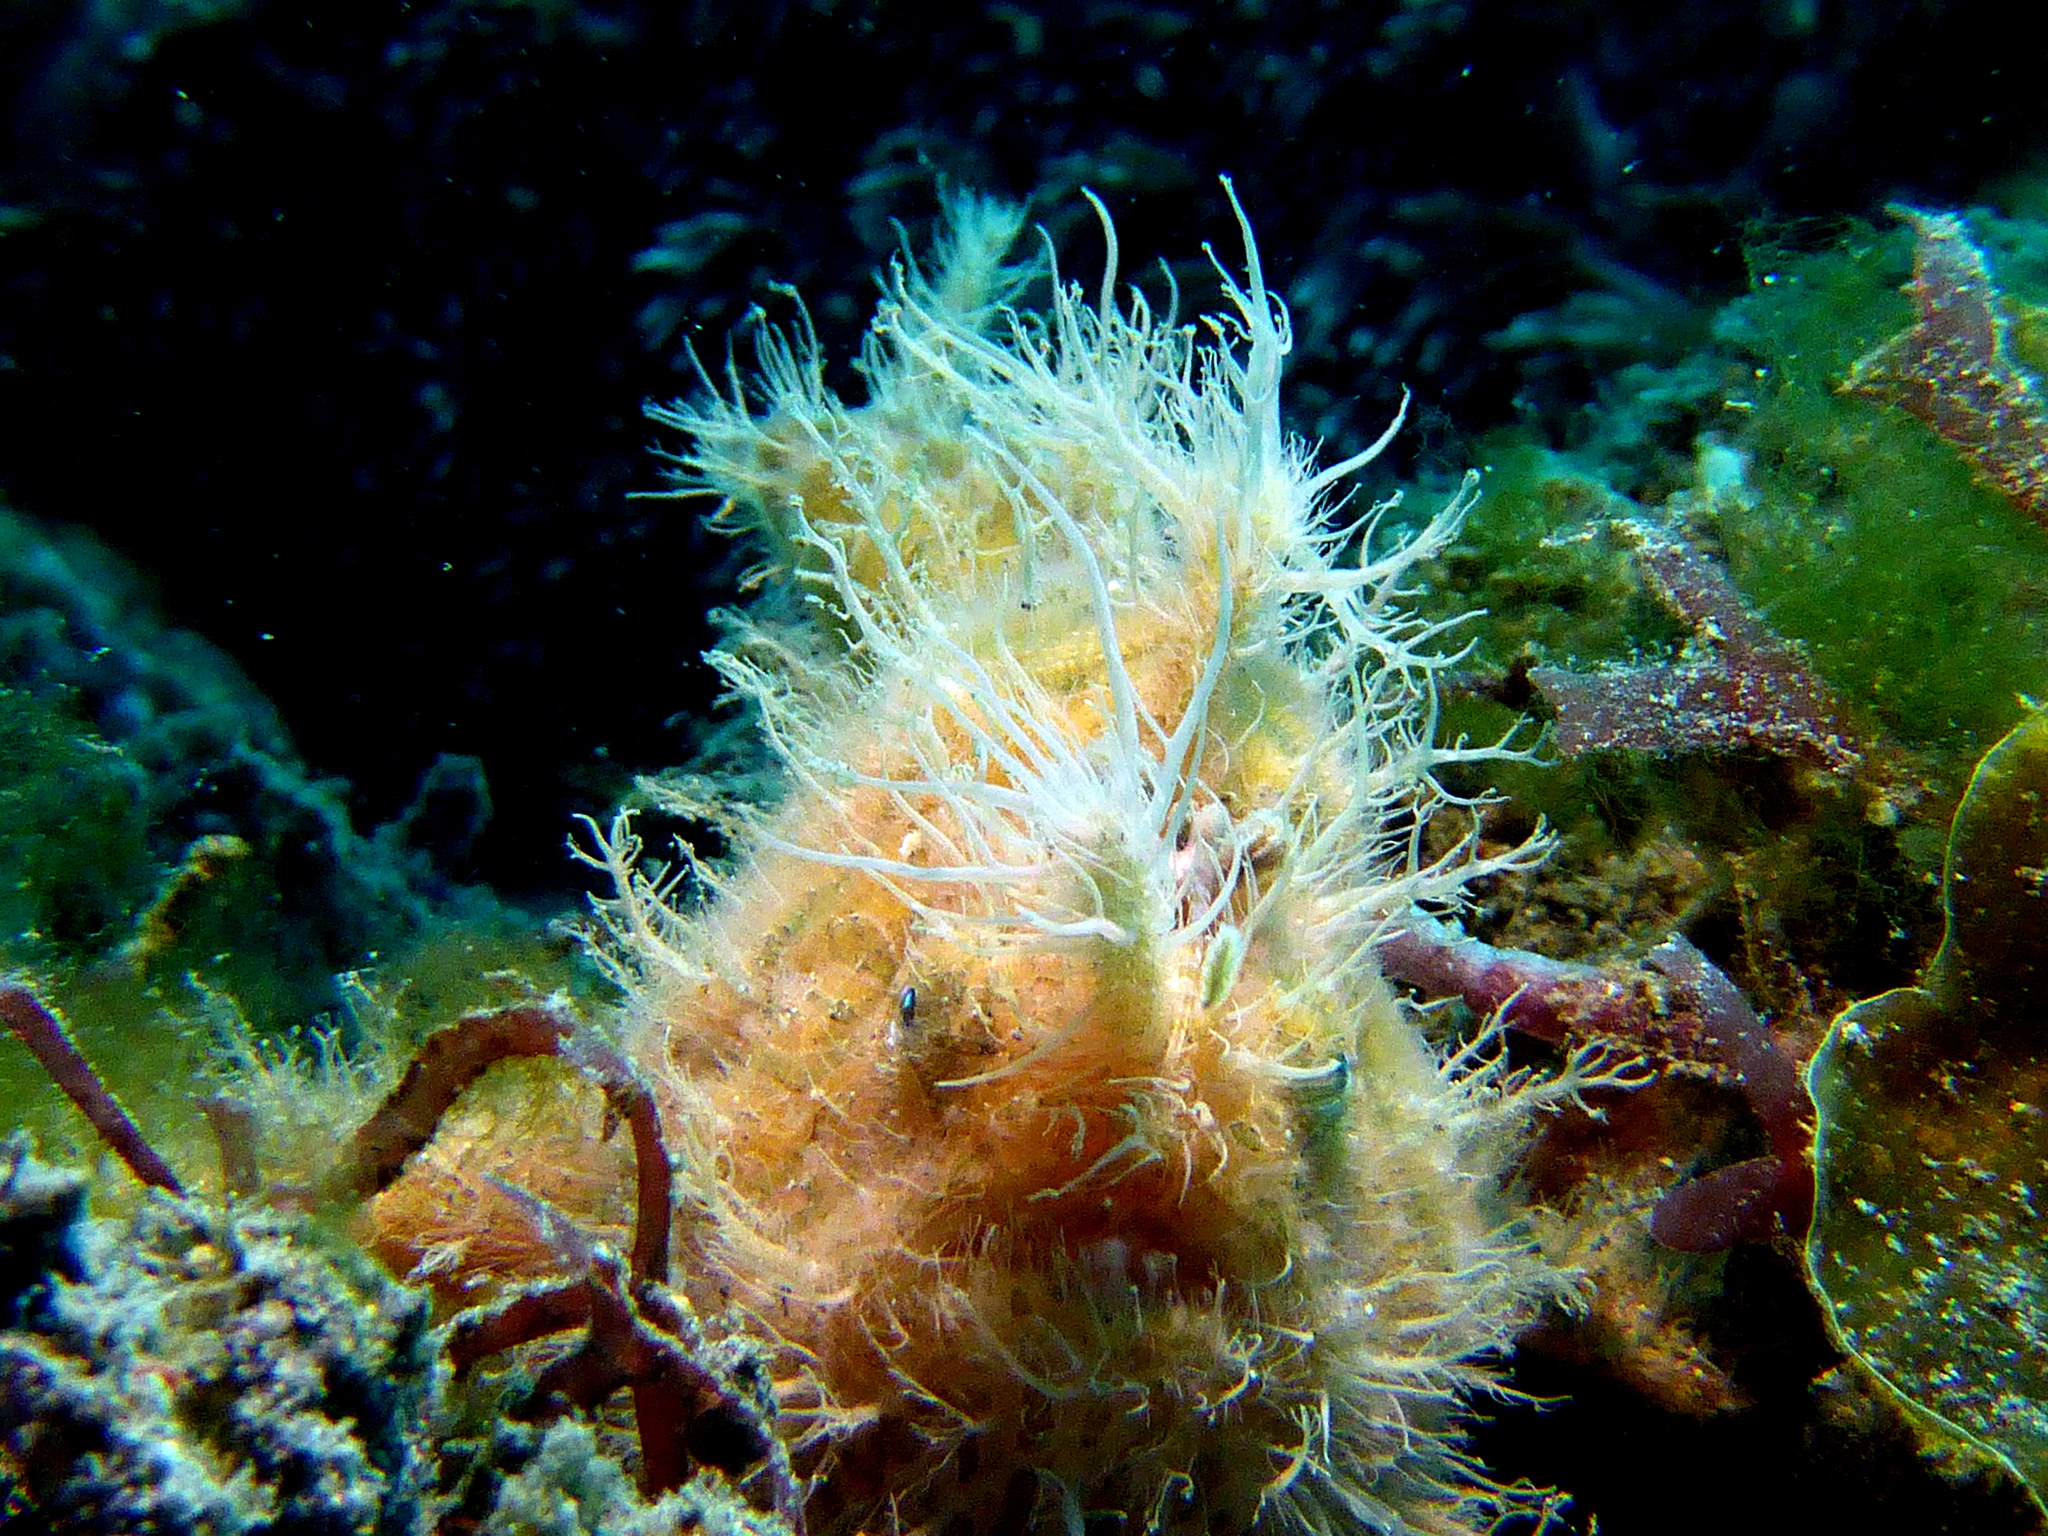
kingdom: Animalia
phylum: Chordata
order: Lophiiformes
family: Antennariidae
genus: Antennarius
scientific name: Antennarius striatus
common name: Striated frogfish
